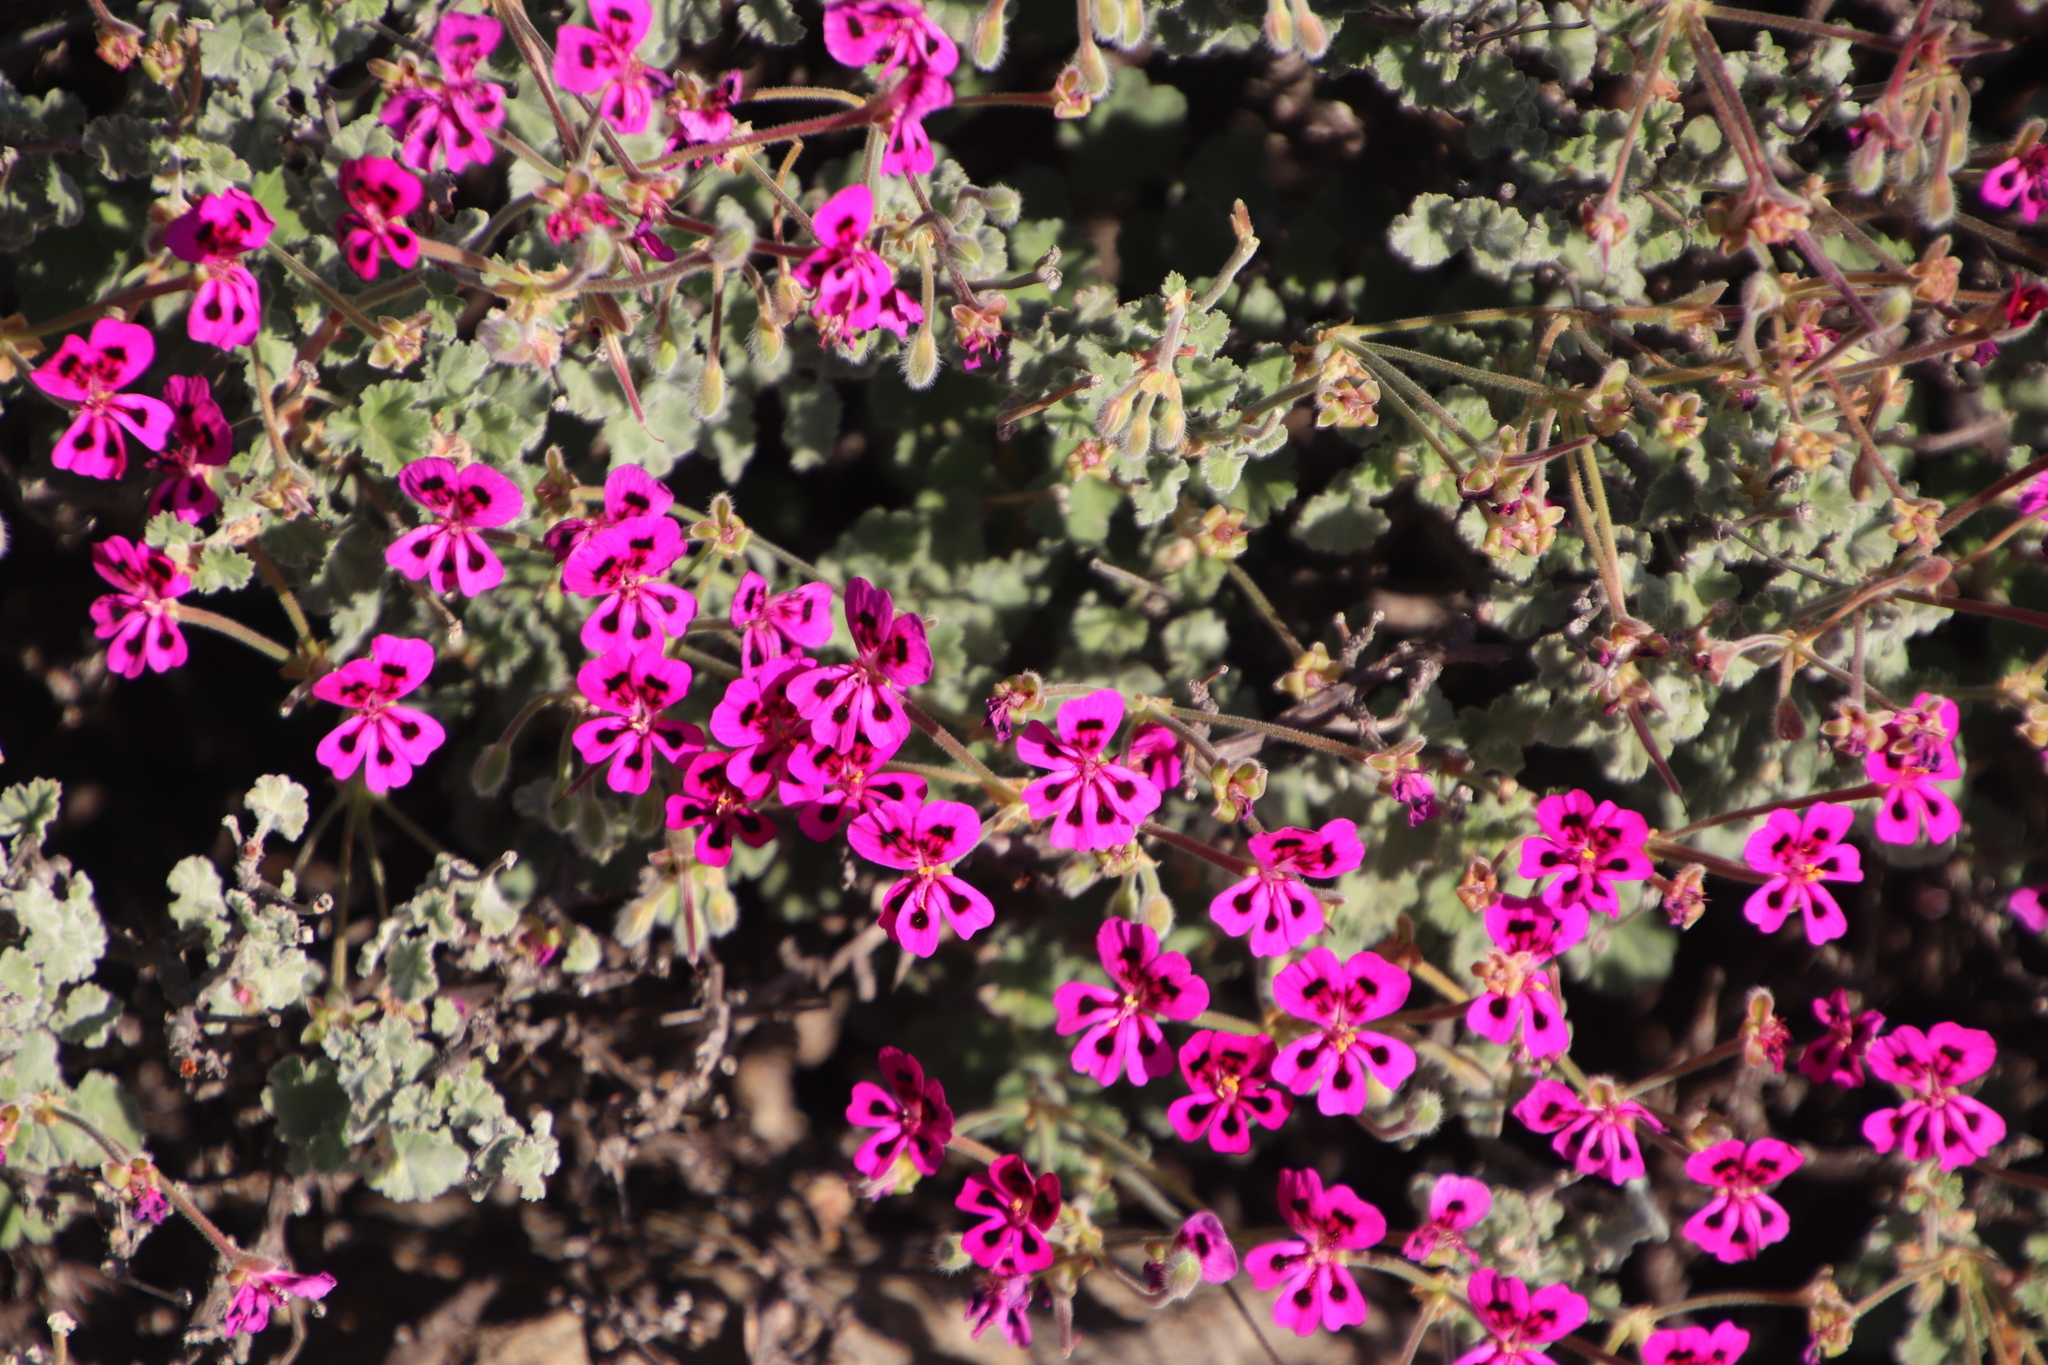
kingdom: Plantae
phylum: Tracheophyta
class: Magnoliopsida
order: Geraniales
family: Geraniaceae
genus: Pelargonium
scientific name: Pelargonium magenteum
